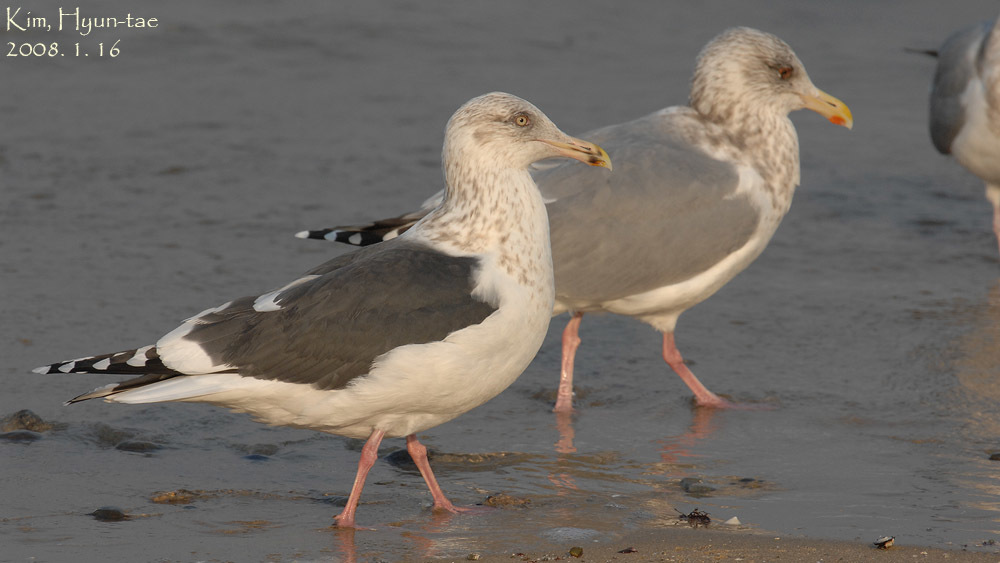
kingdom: Animalia
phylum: Chordata
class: Aves
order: Charadriiformes
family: Laridae
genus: Larus
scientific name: Larus schistisagus
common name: Slaty-backed gull
